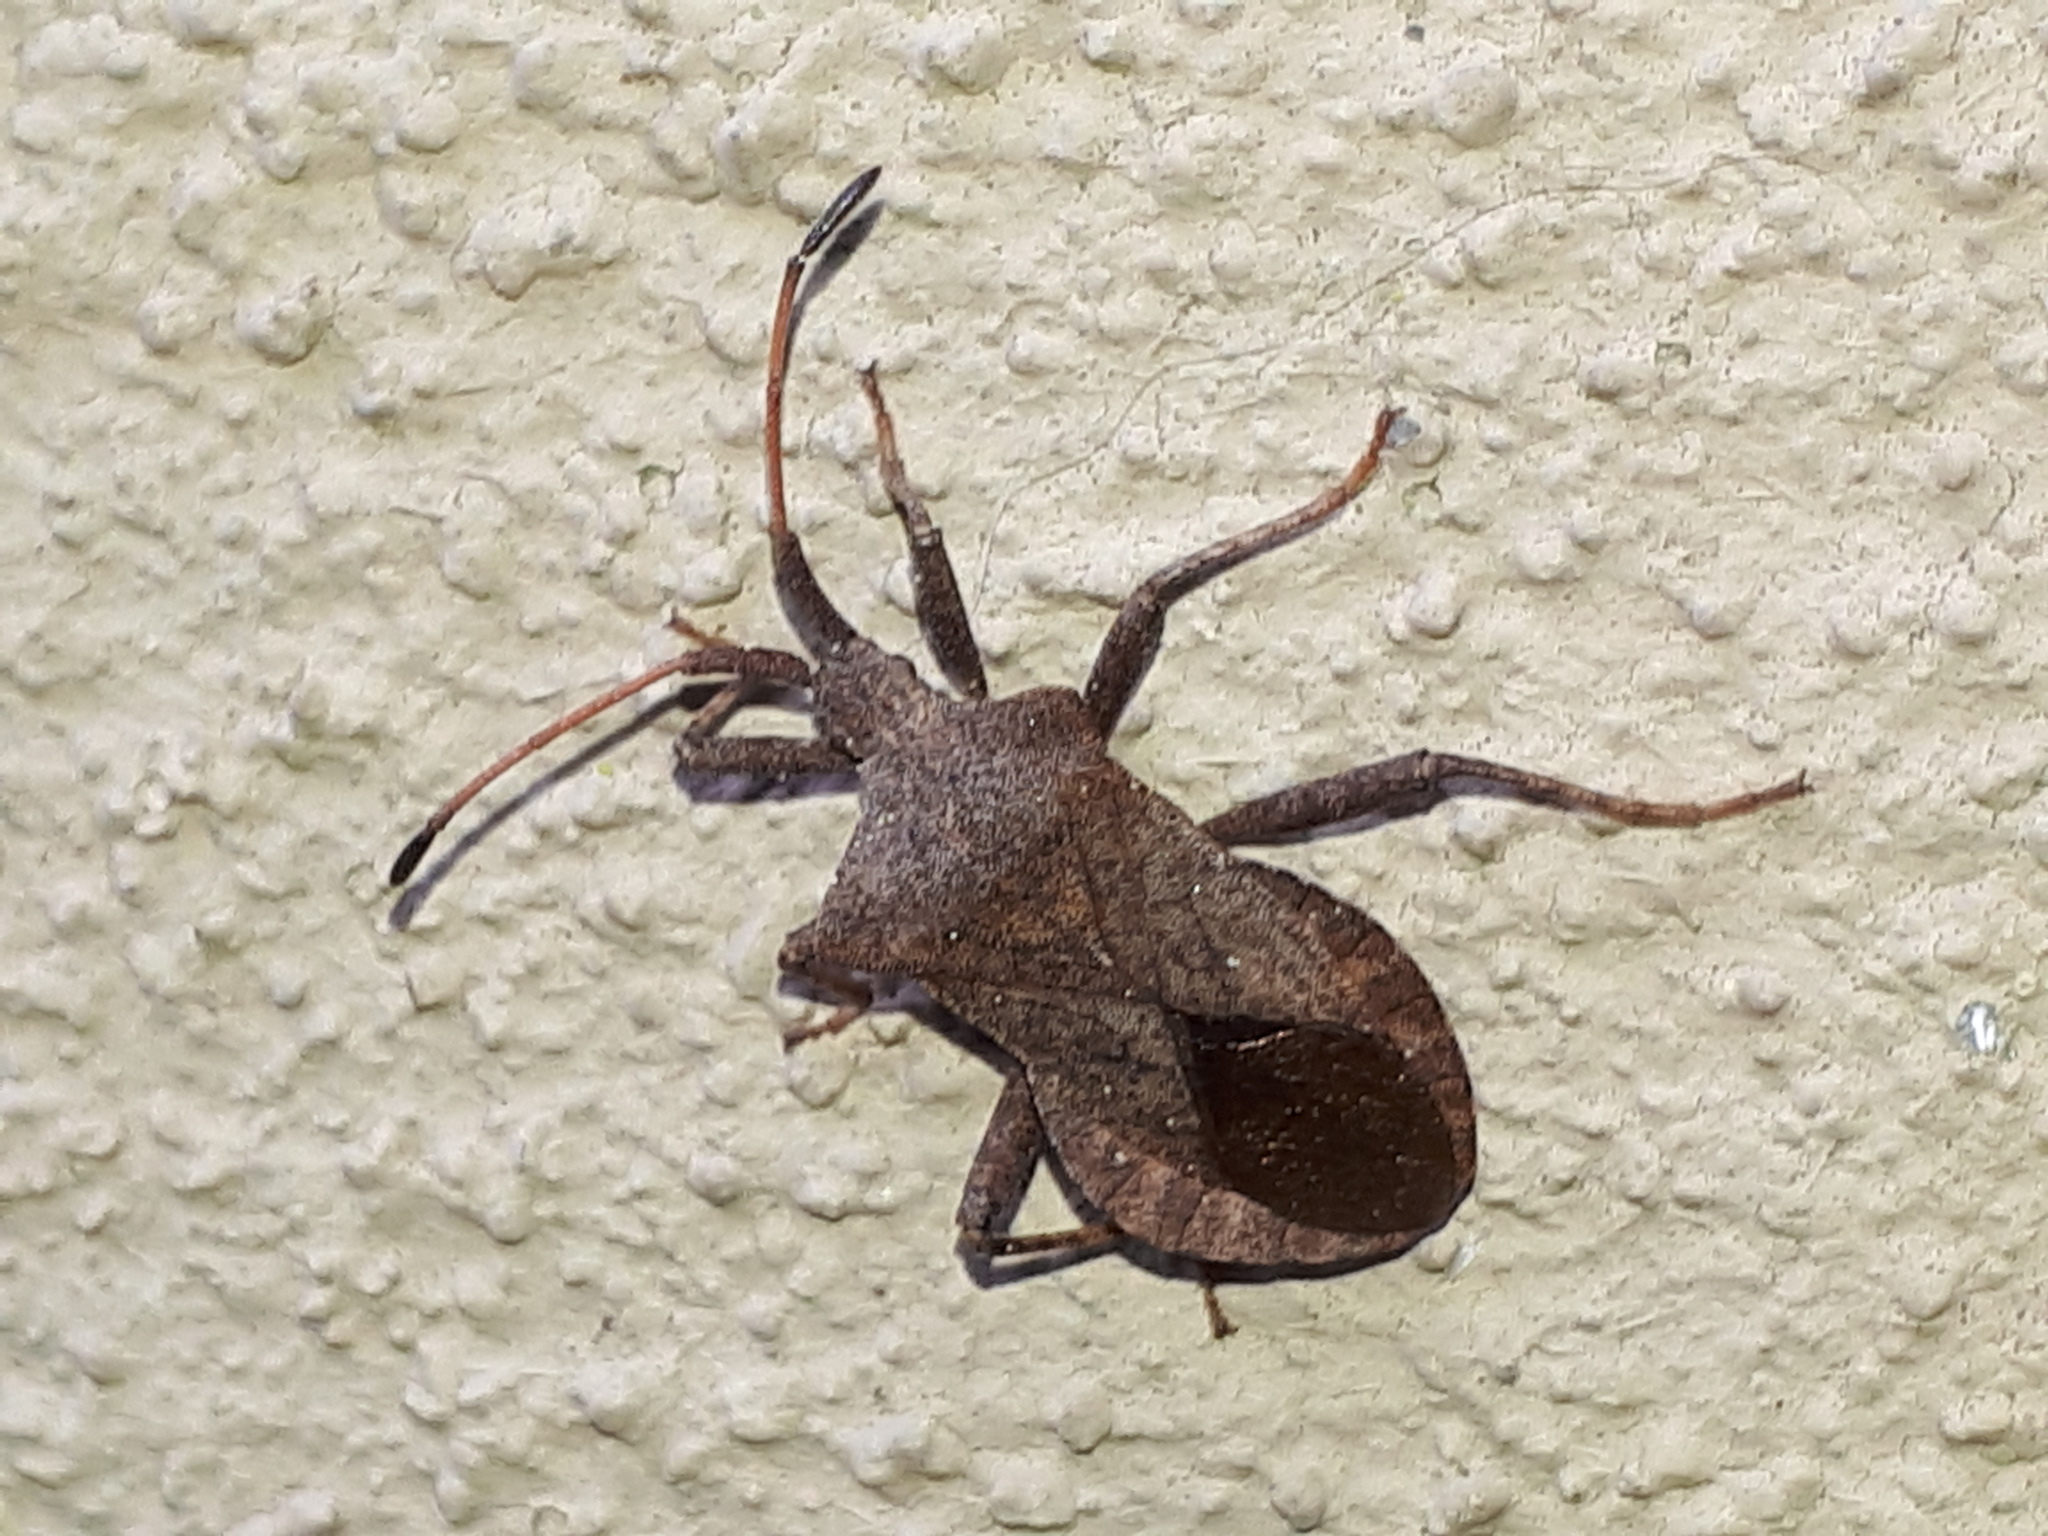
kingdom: Animalia
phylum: Arthropoda
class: Insecta
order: Hemiptera
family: Coreidae
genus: Coreus
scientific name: Coreus marginatus
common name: Dock bug
